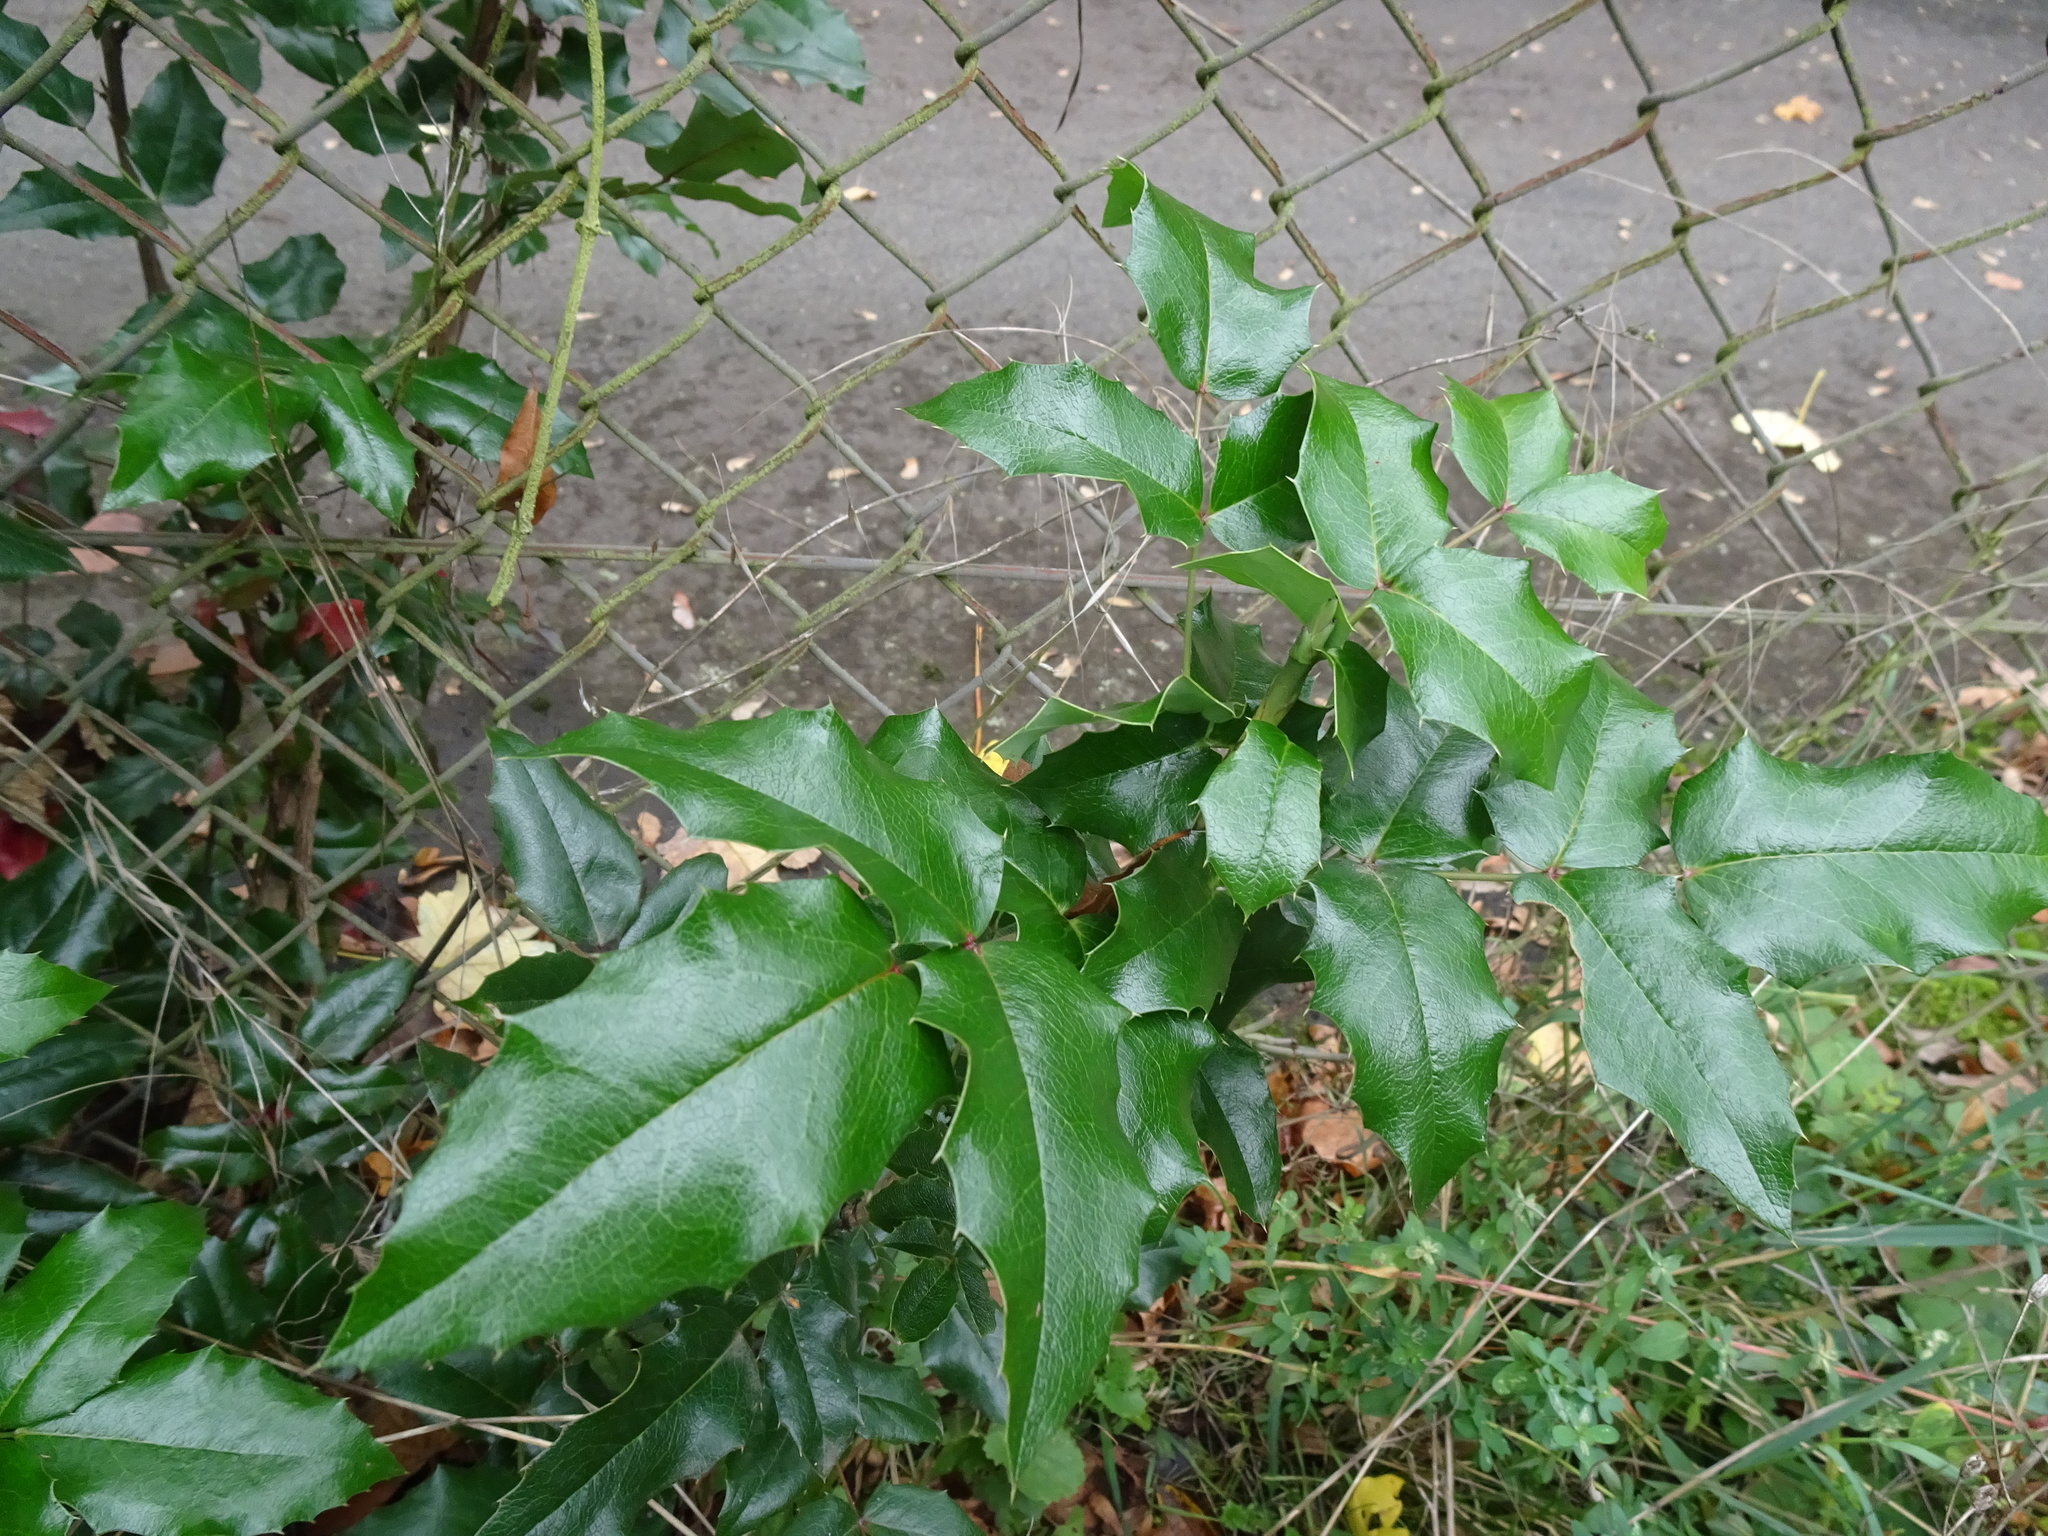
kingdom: Plantae
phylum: Tracheophyta
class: Magnoliopsida
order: Ranunculales
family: Berberidaceae
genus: Mahonia
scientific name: Mahonia aquifolium
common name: Oregon-grape
